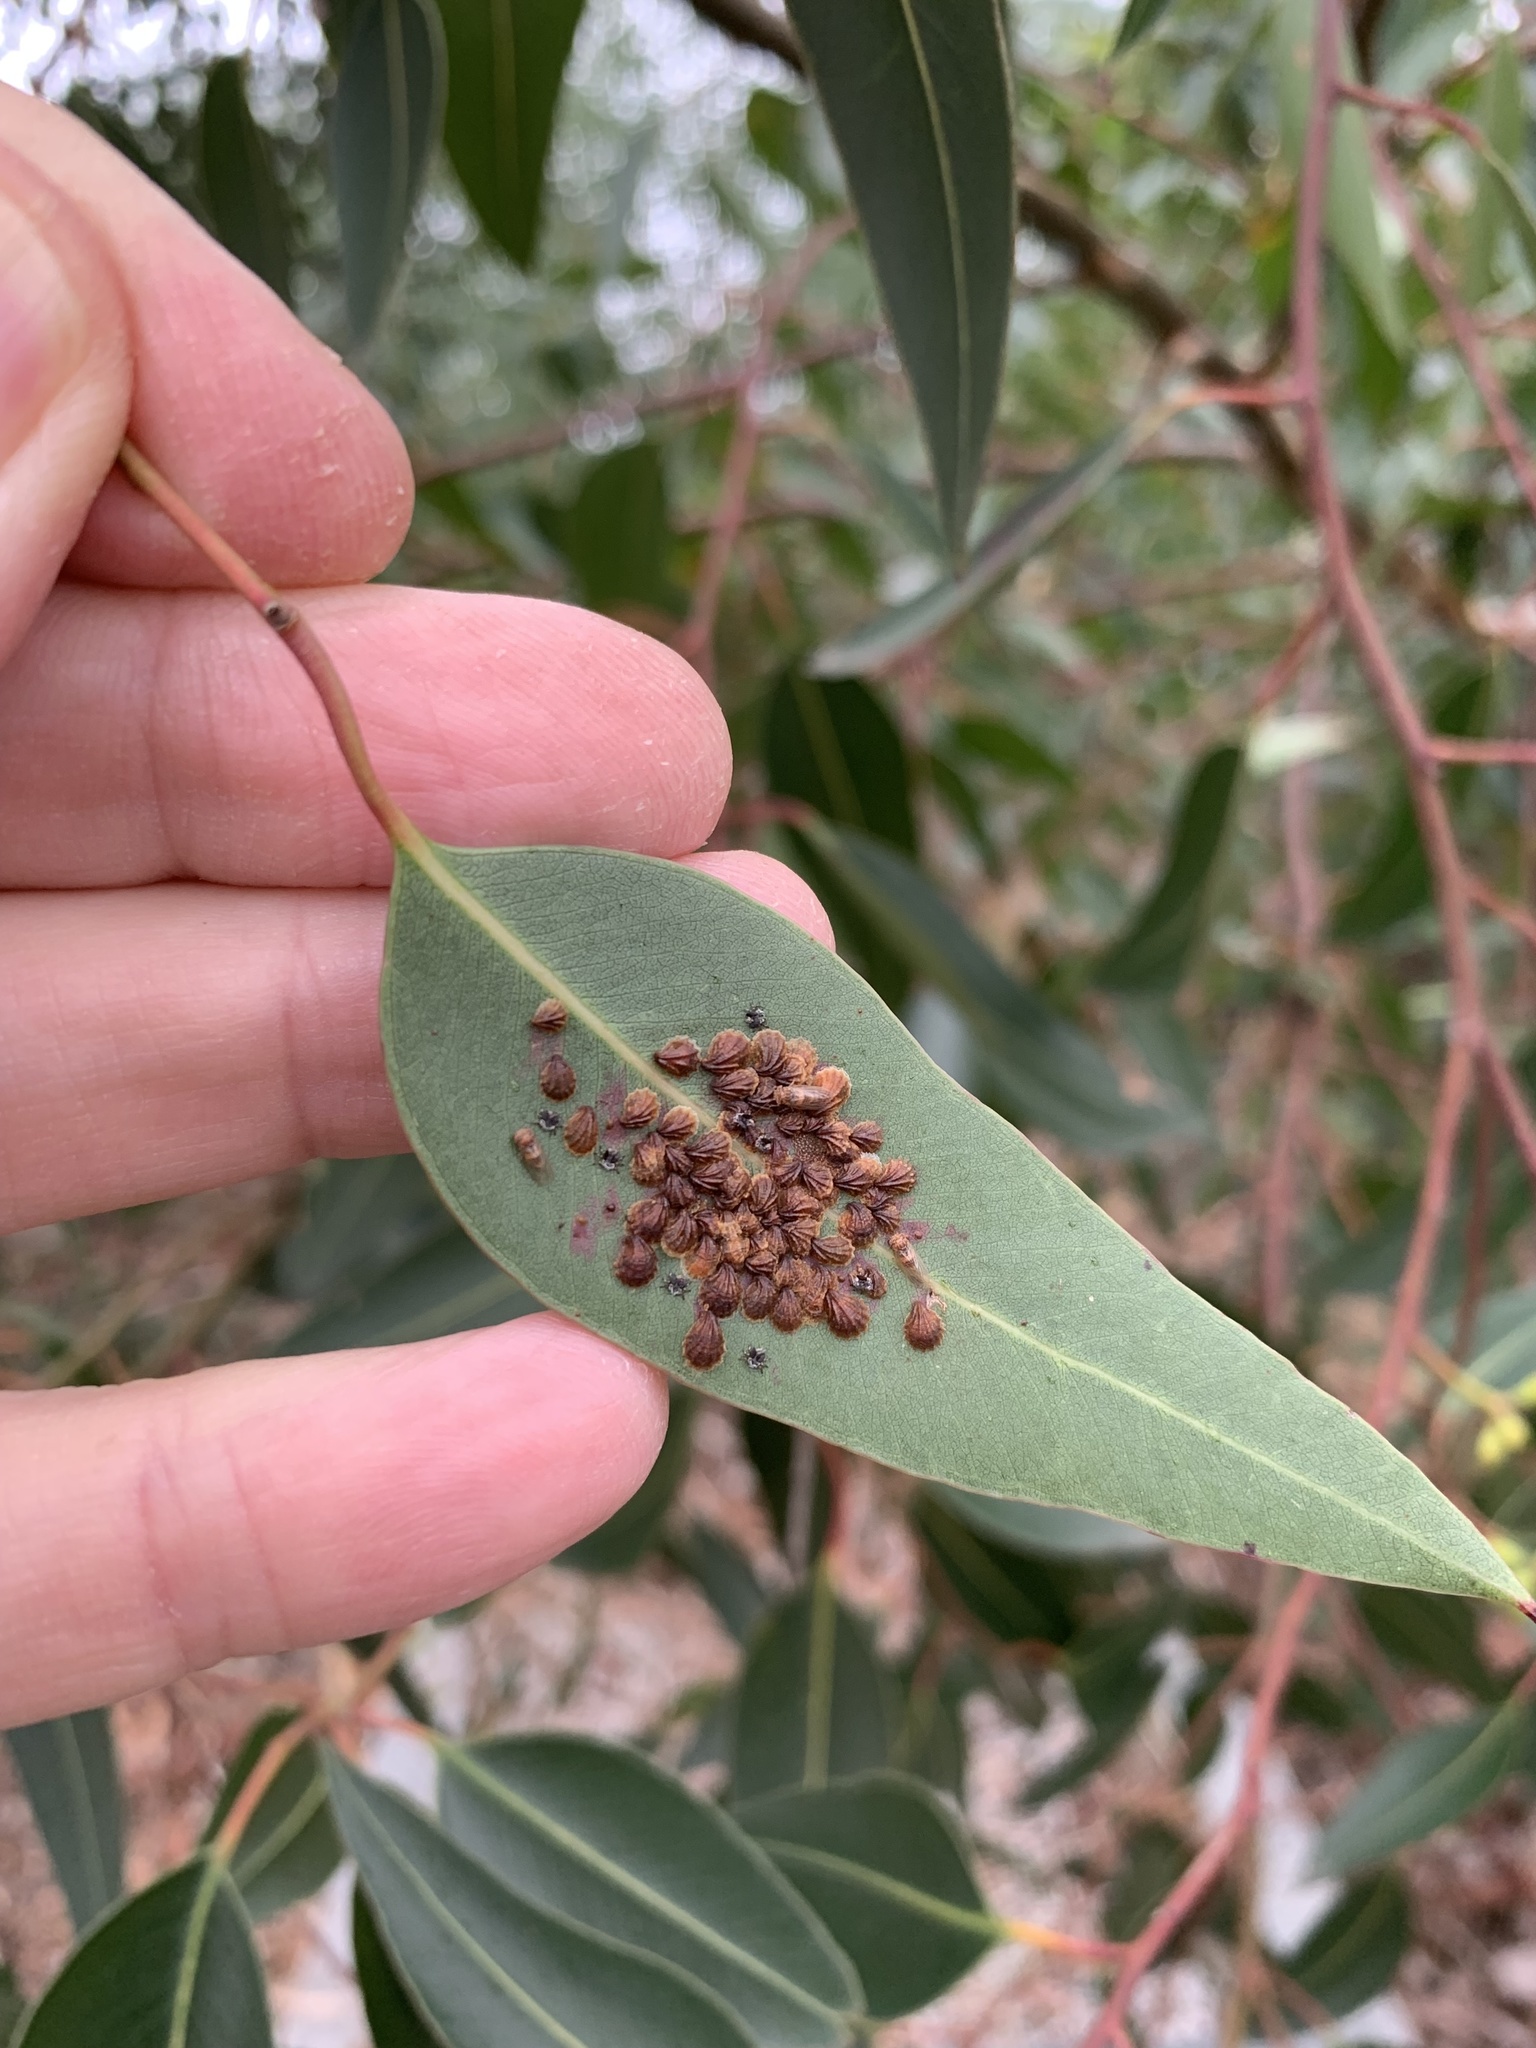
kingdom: Plantae
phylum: Tracheophyta
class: Magnoliopsida
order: Myrtales
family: Myrtaceae
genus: Eucalyptus
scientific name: Eucalyptus cladocalyx
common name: Sugargum
